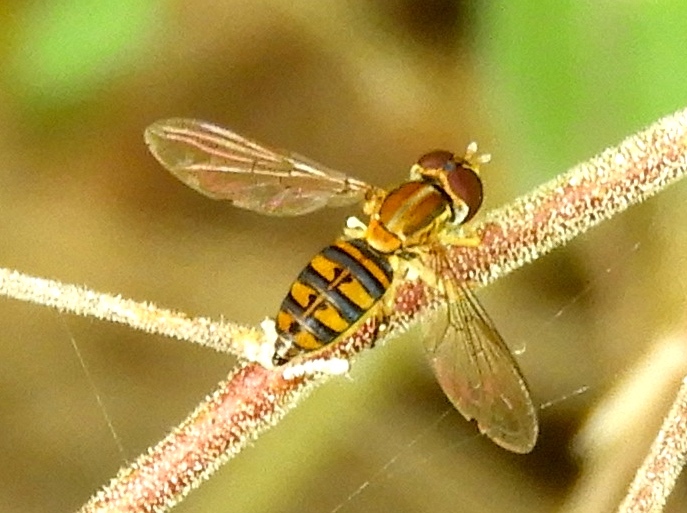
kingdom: Animalia
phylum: Arthropoda
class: Insecta
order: Diptera
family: Syrphidae
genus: Toxomerus
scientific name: Toxomerus
